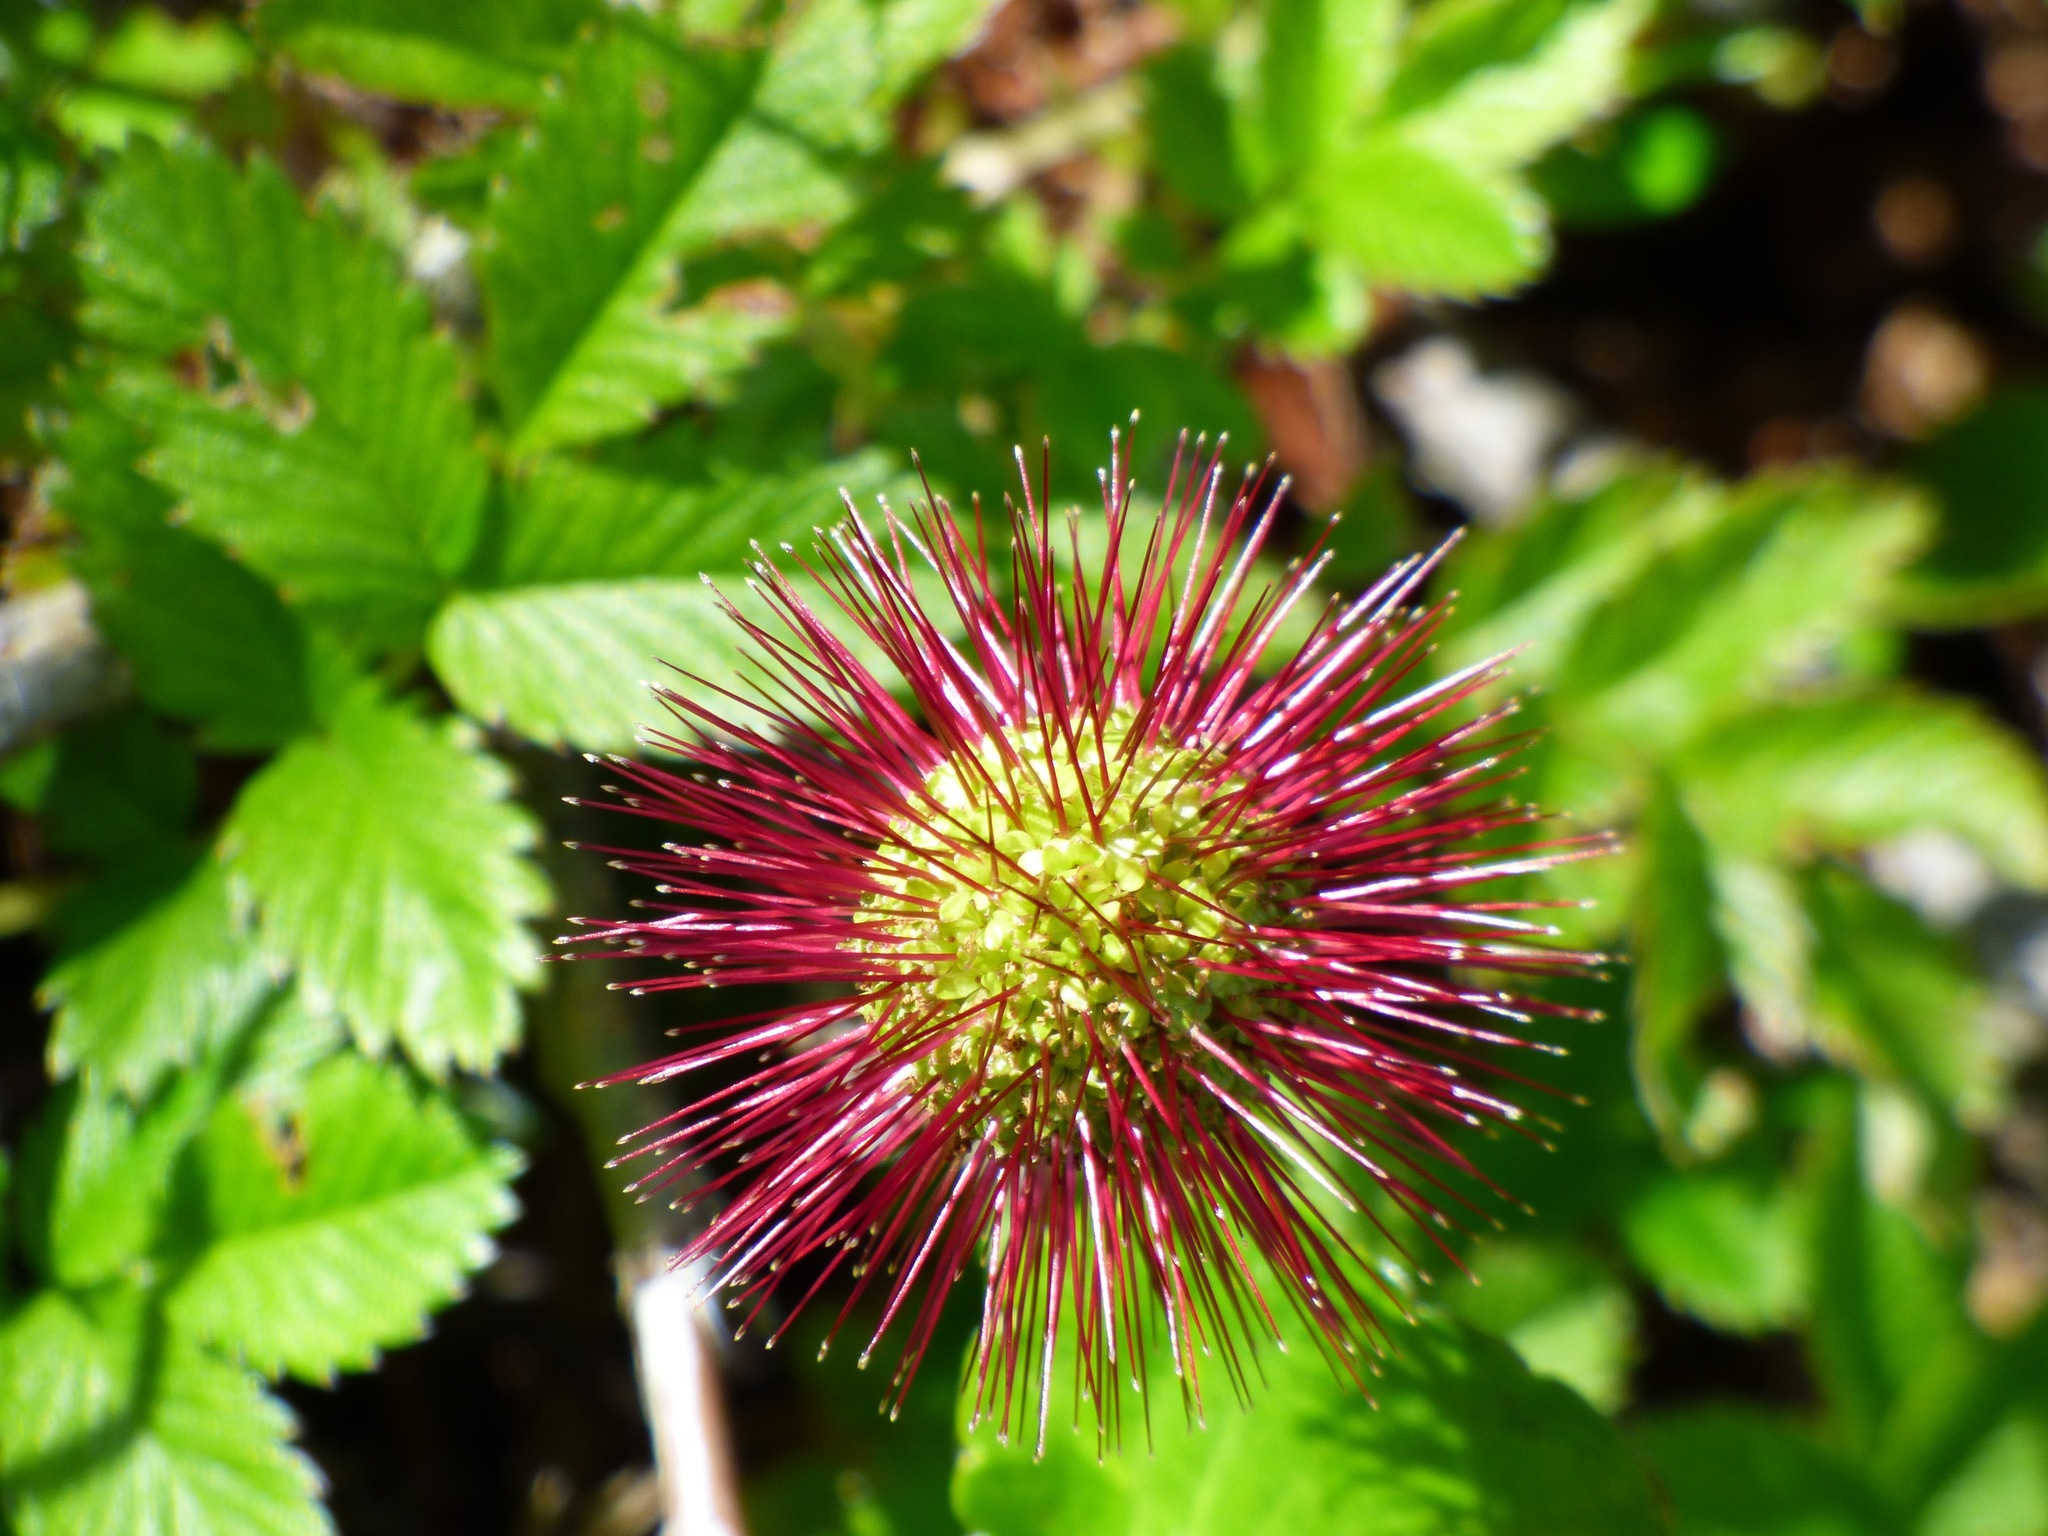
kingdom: Plantae
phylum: Tracheophyta
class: Magnoliopsida
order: Rosales
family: Rosaceae
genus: Acaena
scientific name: Acaena ovalifolia
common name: Two-spined acaena
